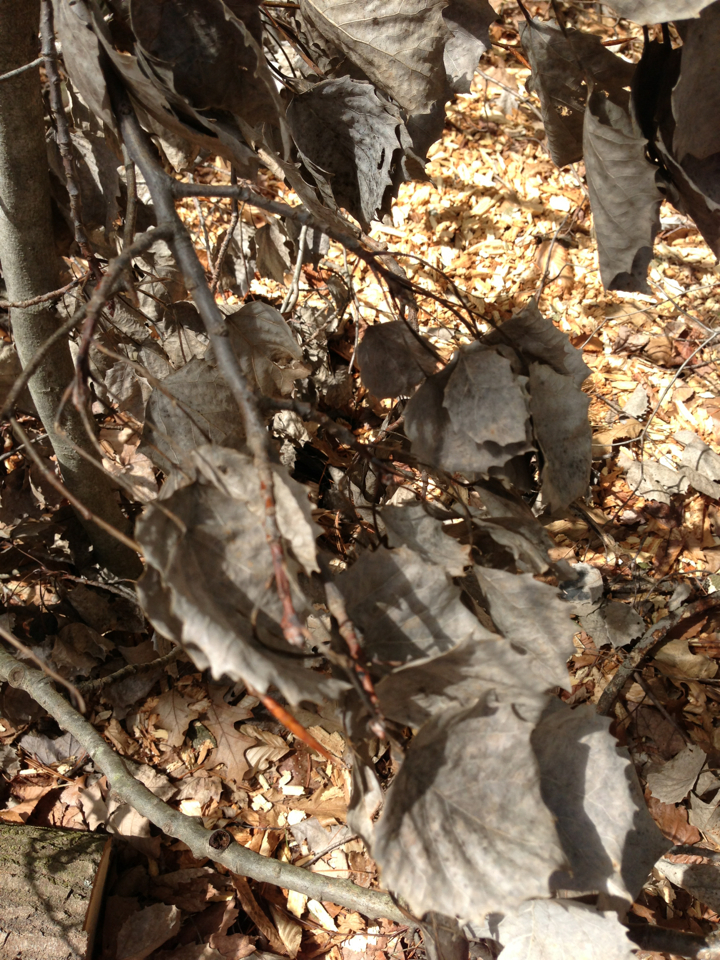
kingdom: Plantae
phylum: Tracheophyta
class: Magnoliopsida
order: Malpighiales
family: Salicaceae
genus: Populus
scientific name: Populus grandidentata
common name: Bigtooth aspen
